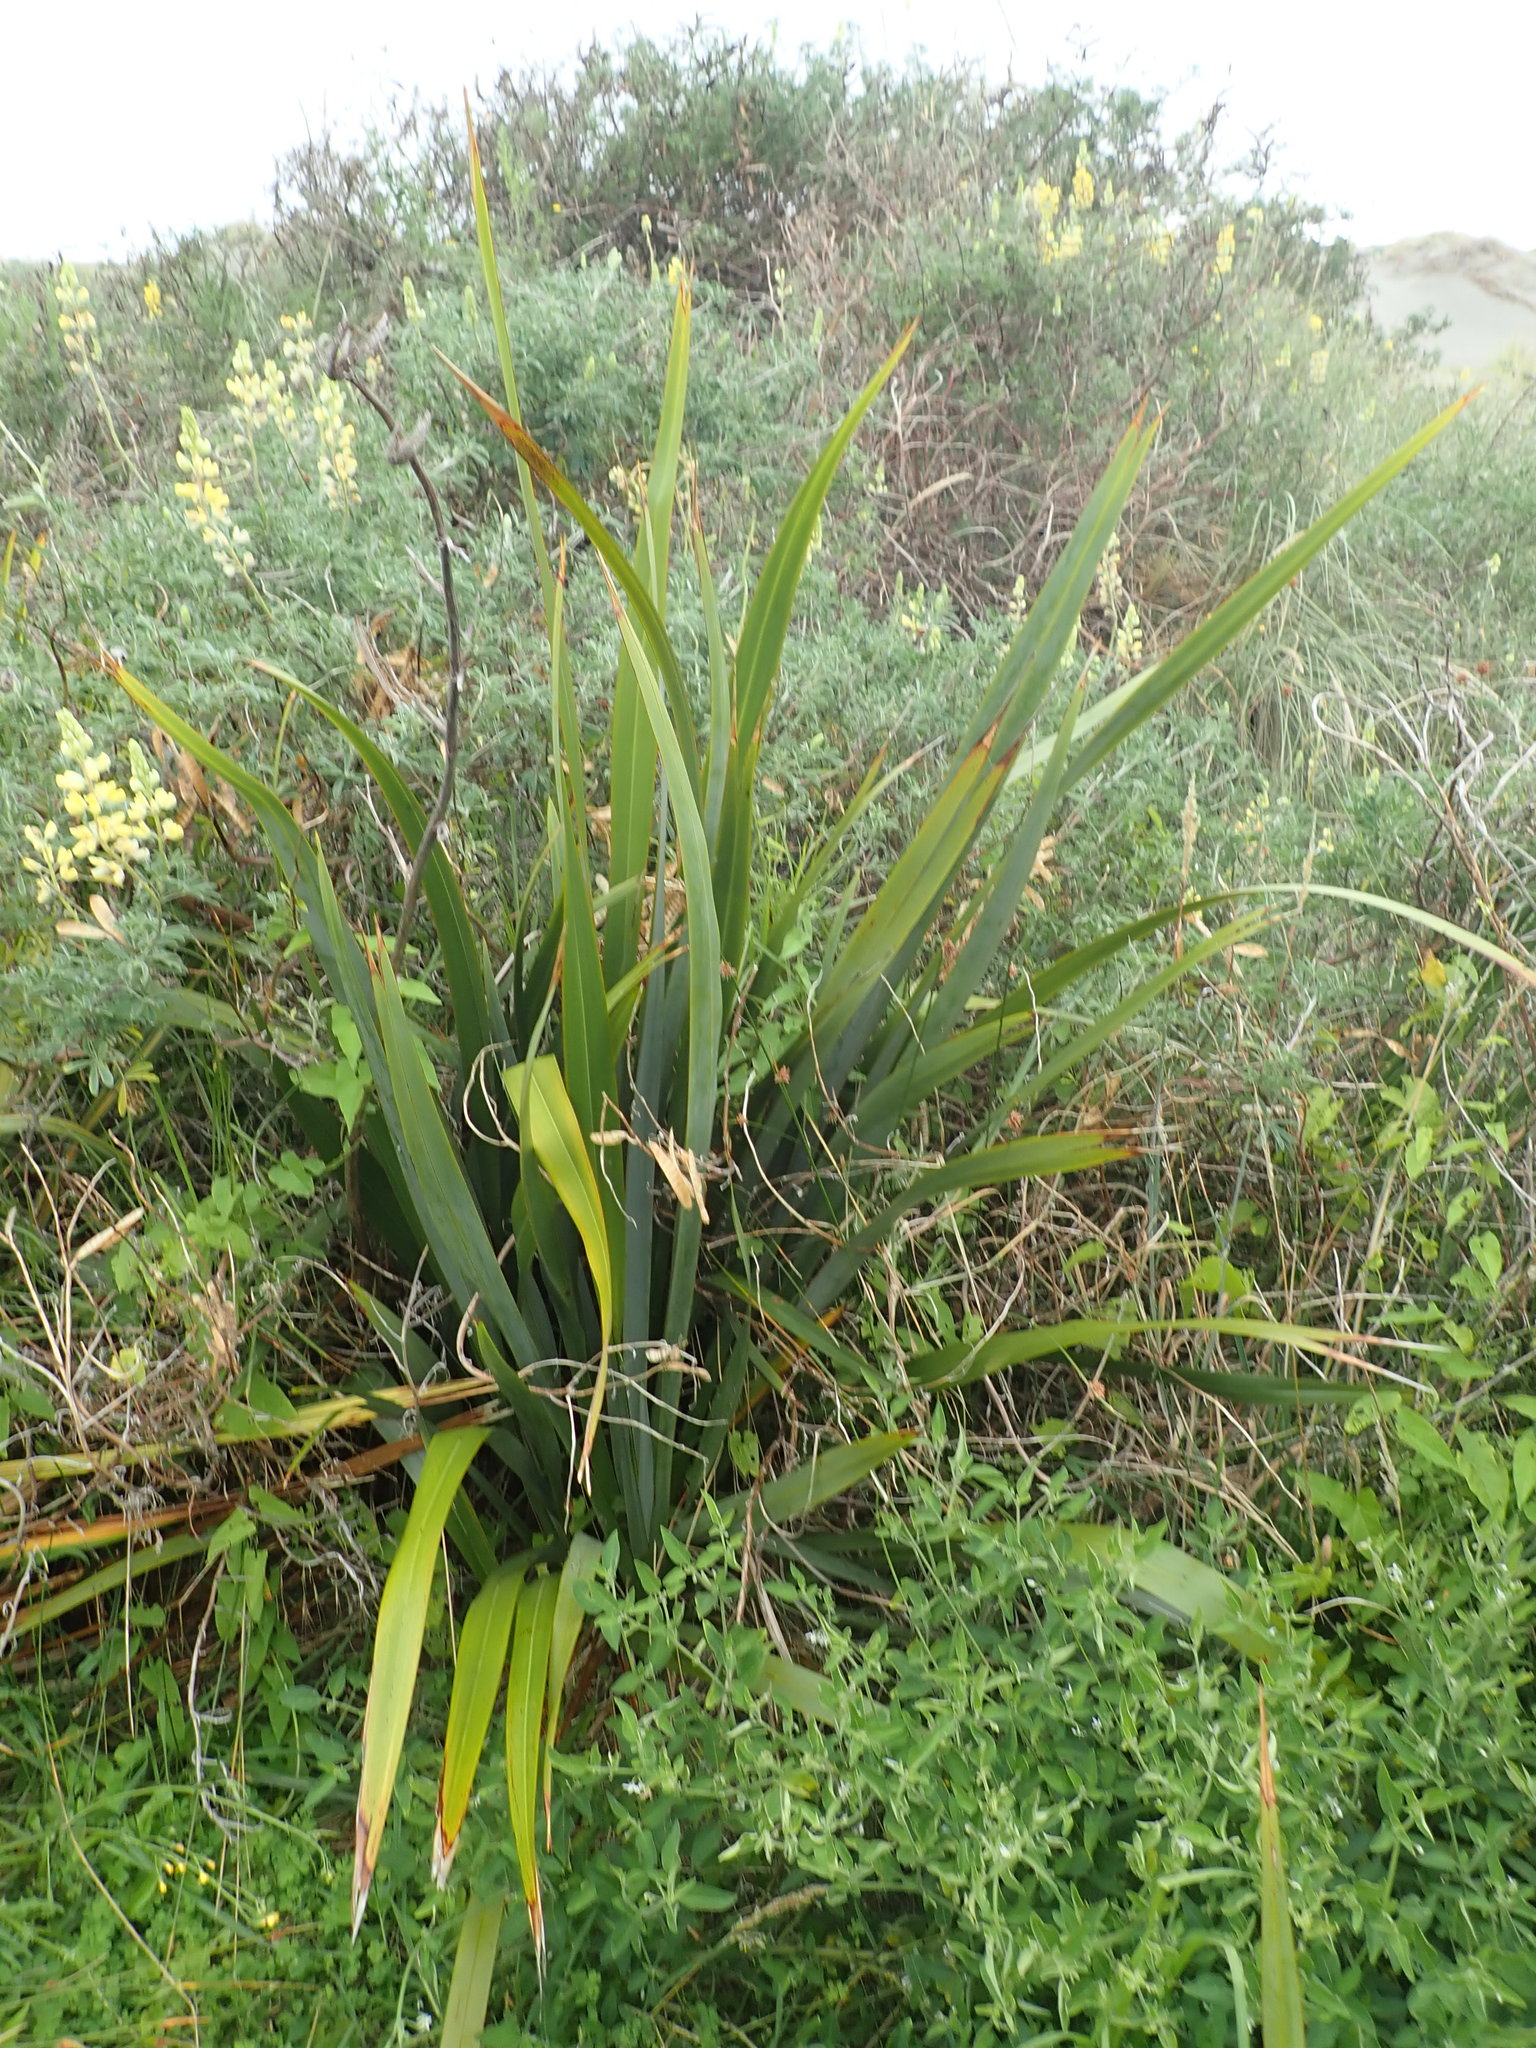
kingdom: Plantae
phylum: Tracheophyta
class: Liliopsida
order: Asparagales
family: Asphodelaceae
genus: Phormium
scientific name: Phormium tenax
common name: New zealand flax
